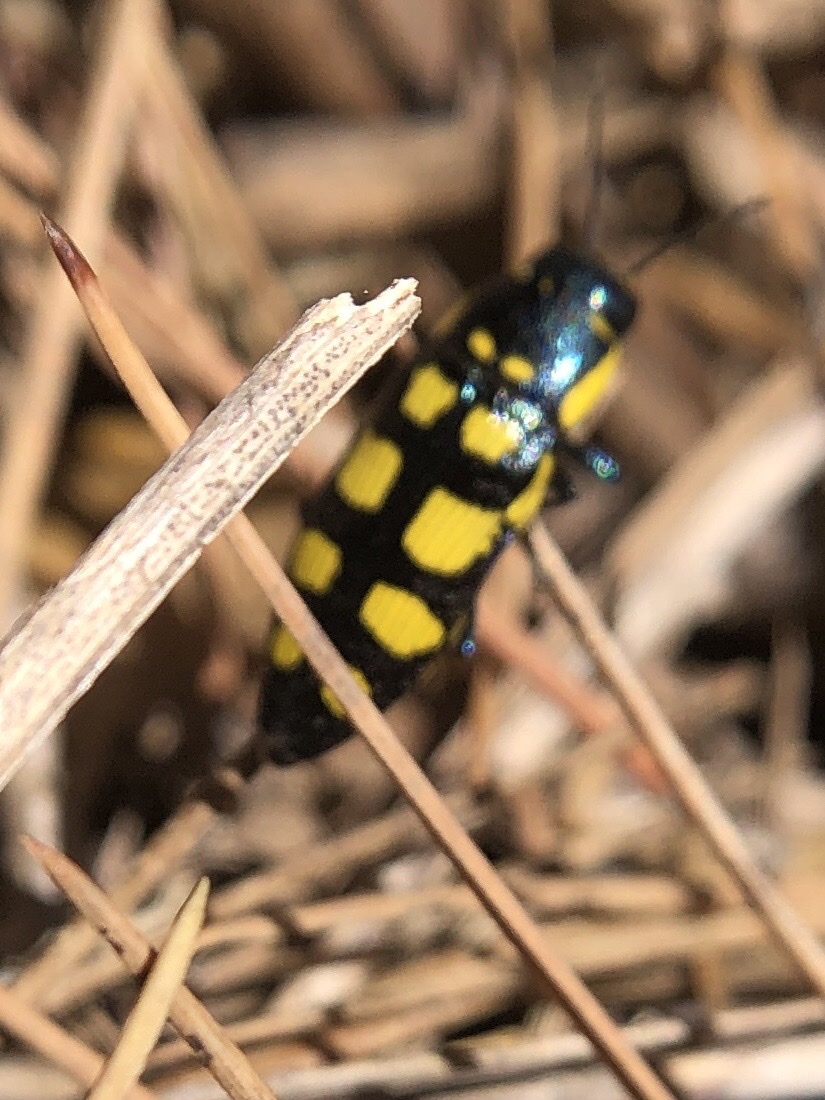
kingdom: Animalia
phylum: Arthropoda
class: Insecta
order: Coleoptera
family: Buprestidae
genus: Buprestis
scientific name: Buprestis magica
